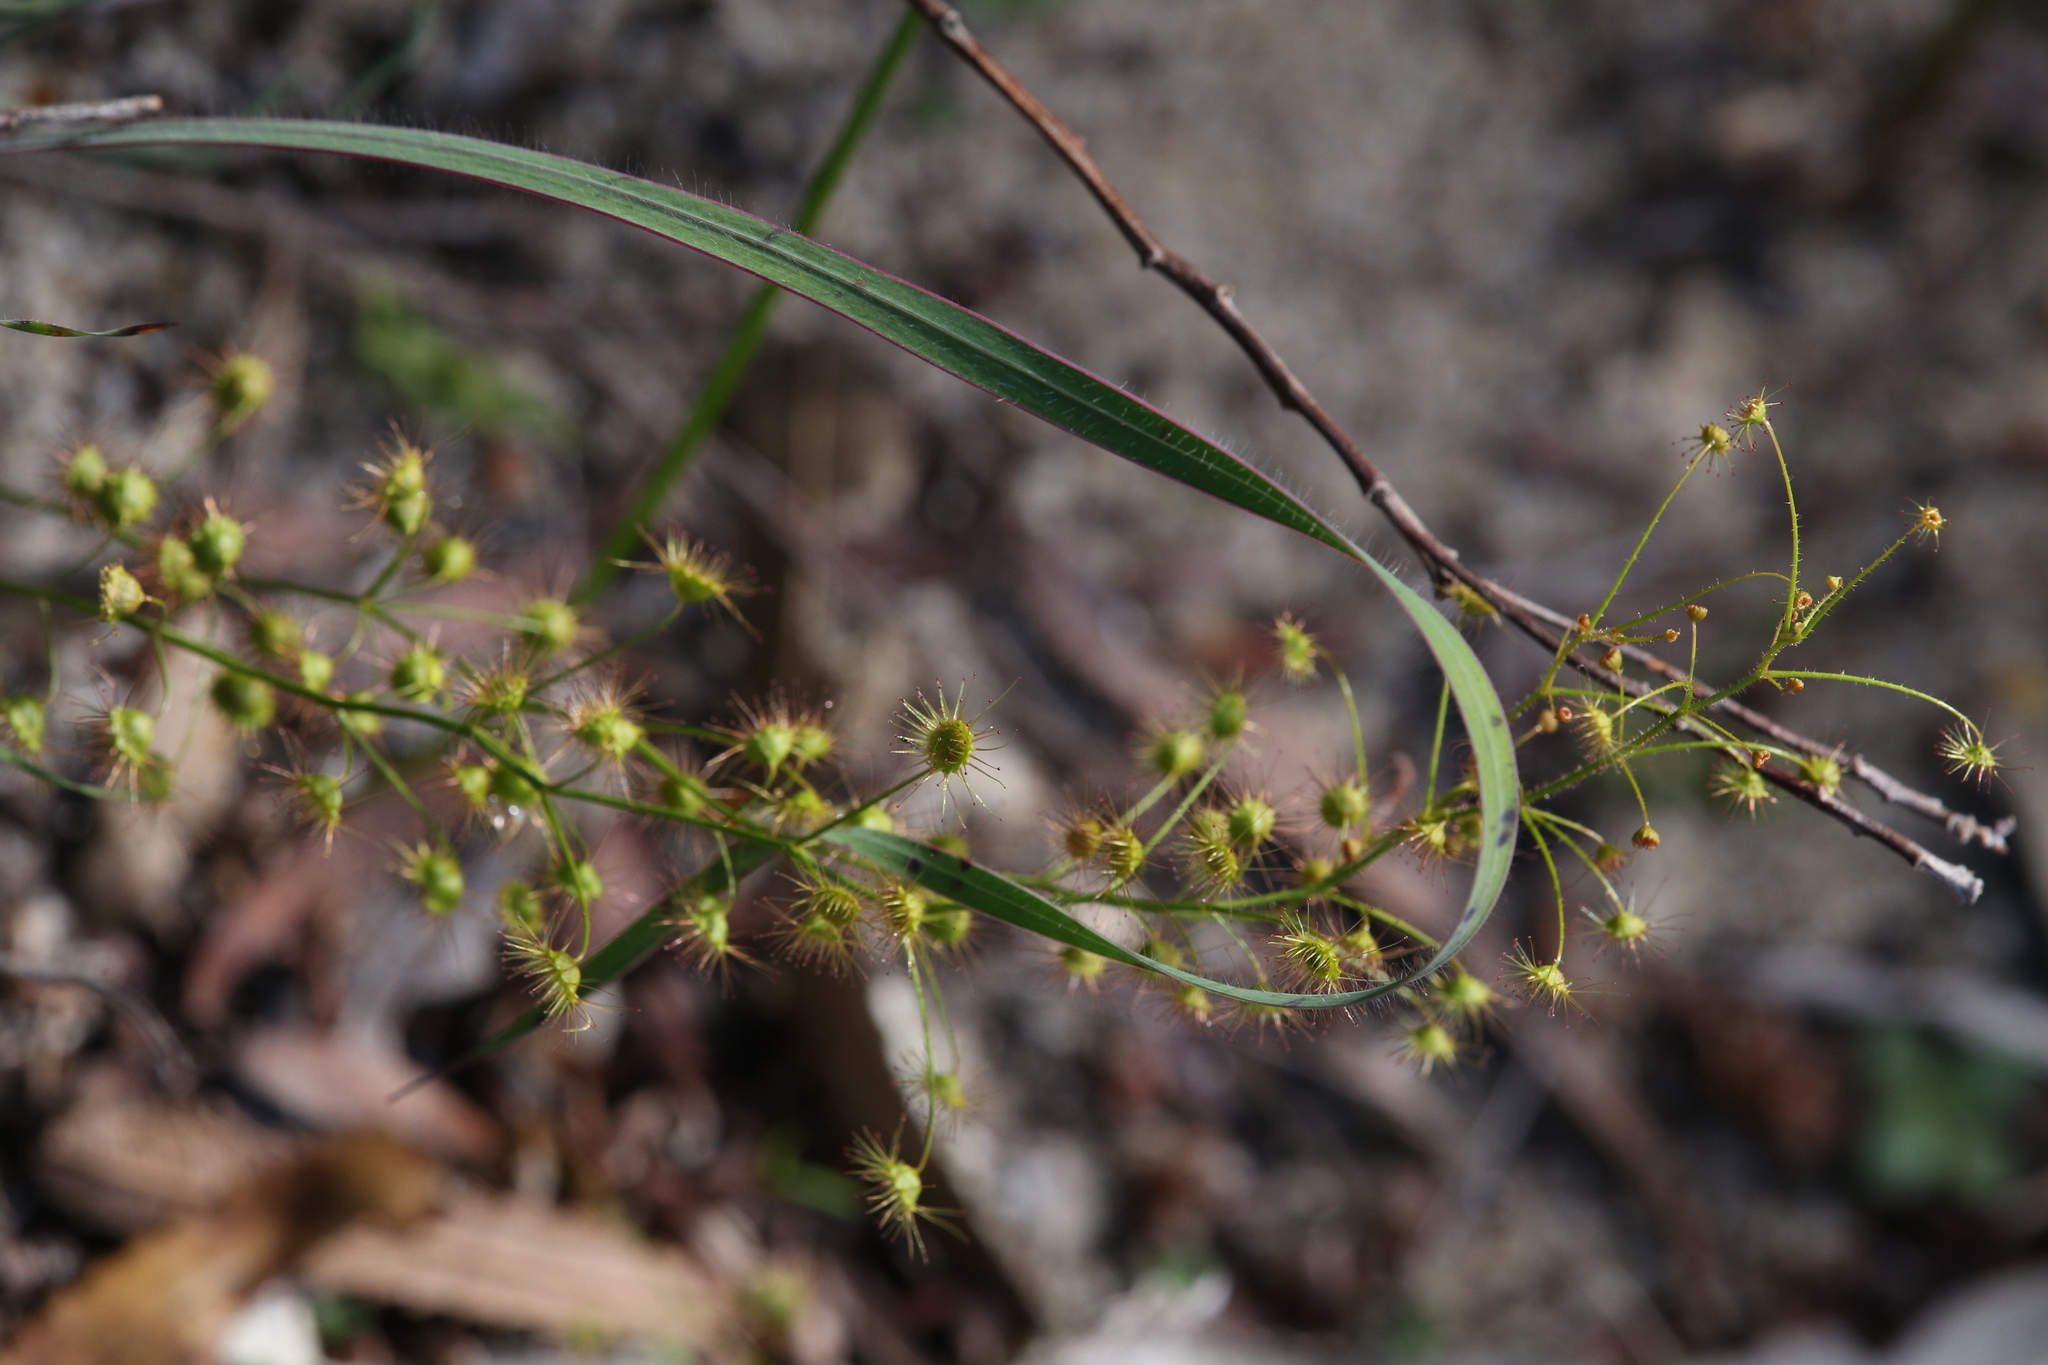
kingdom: Plantae
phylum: Tracheophyta
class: Magnoliopsida
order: Caryophyllales
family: Droseraceae
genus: Drosera
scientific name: Drosera macrantha
